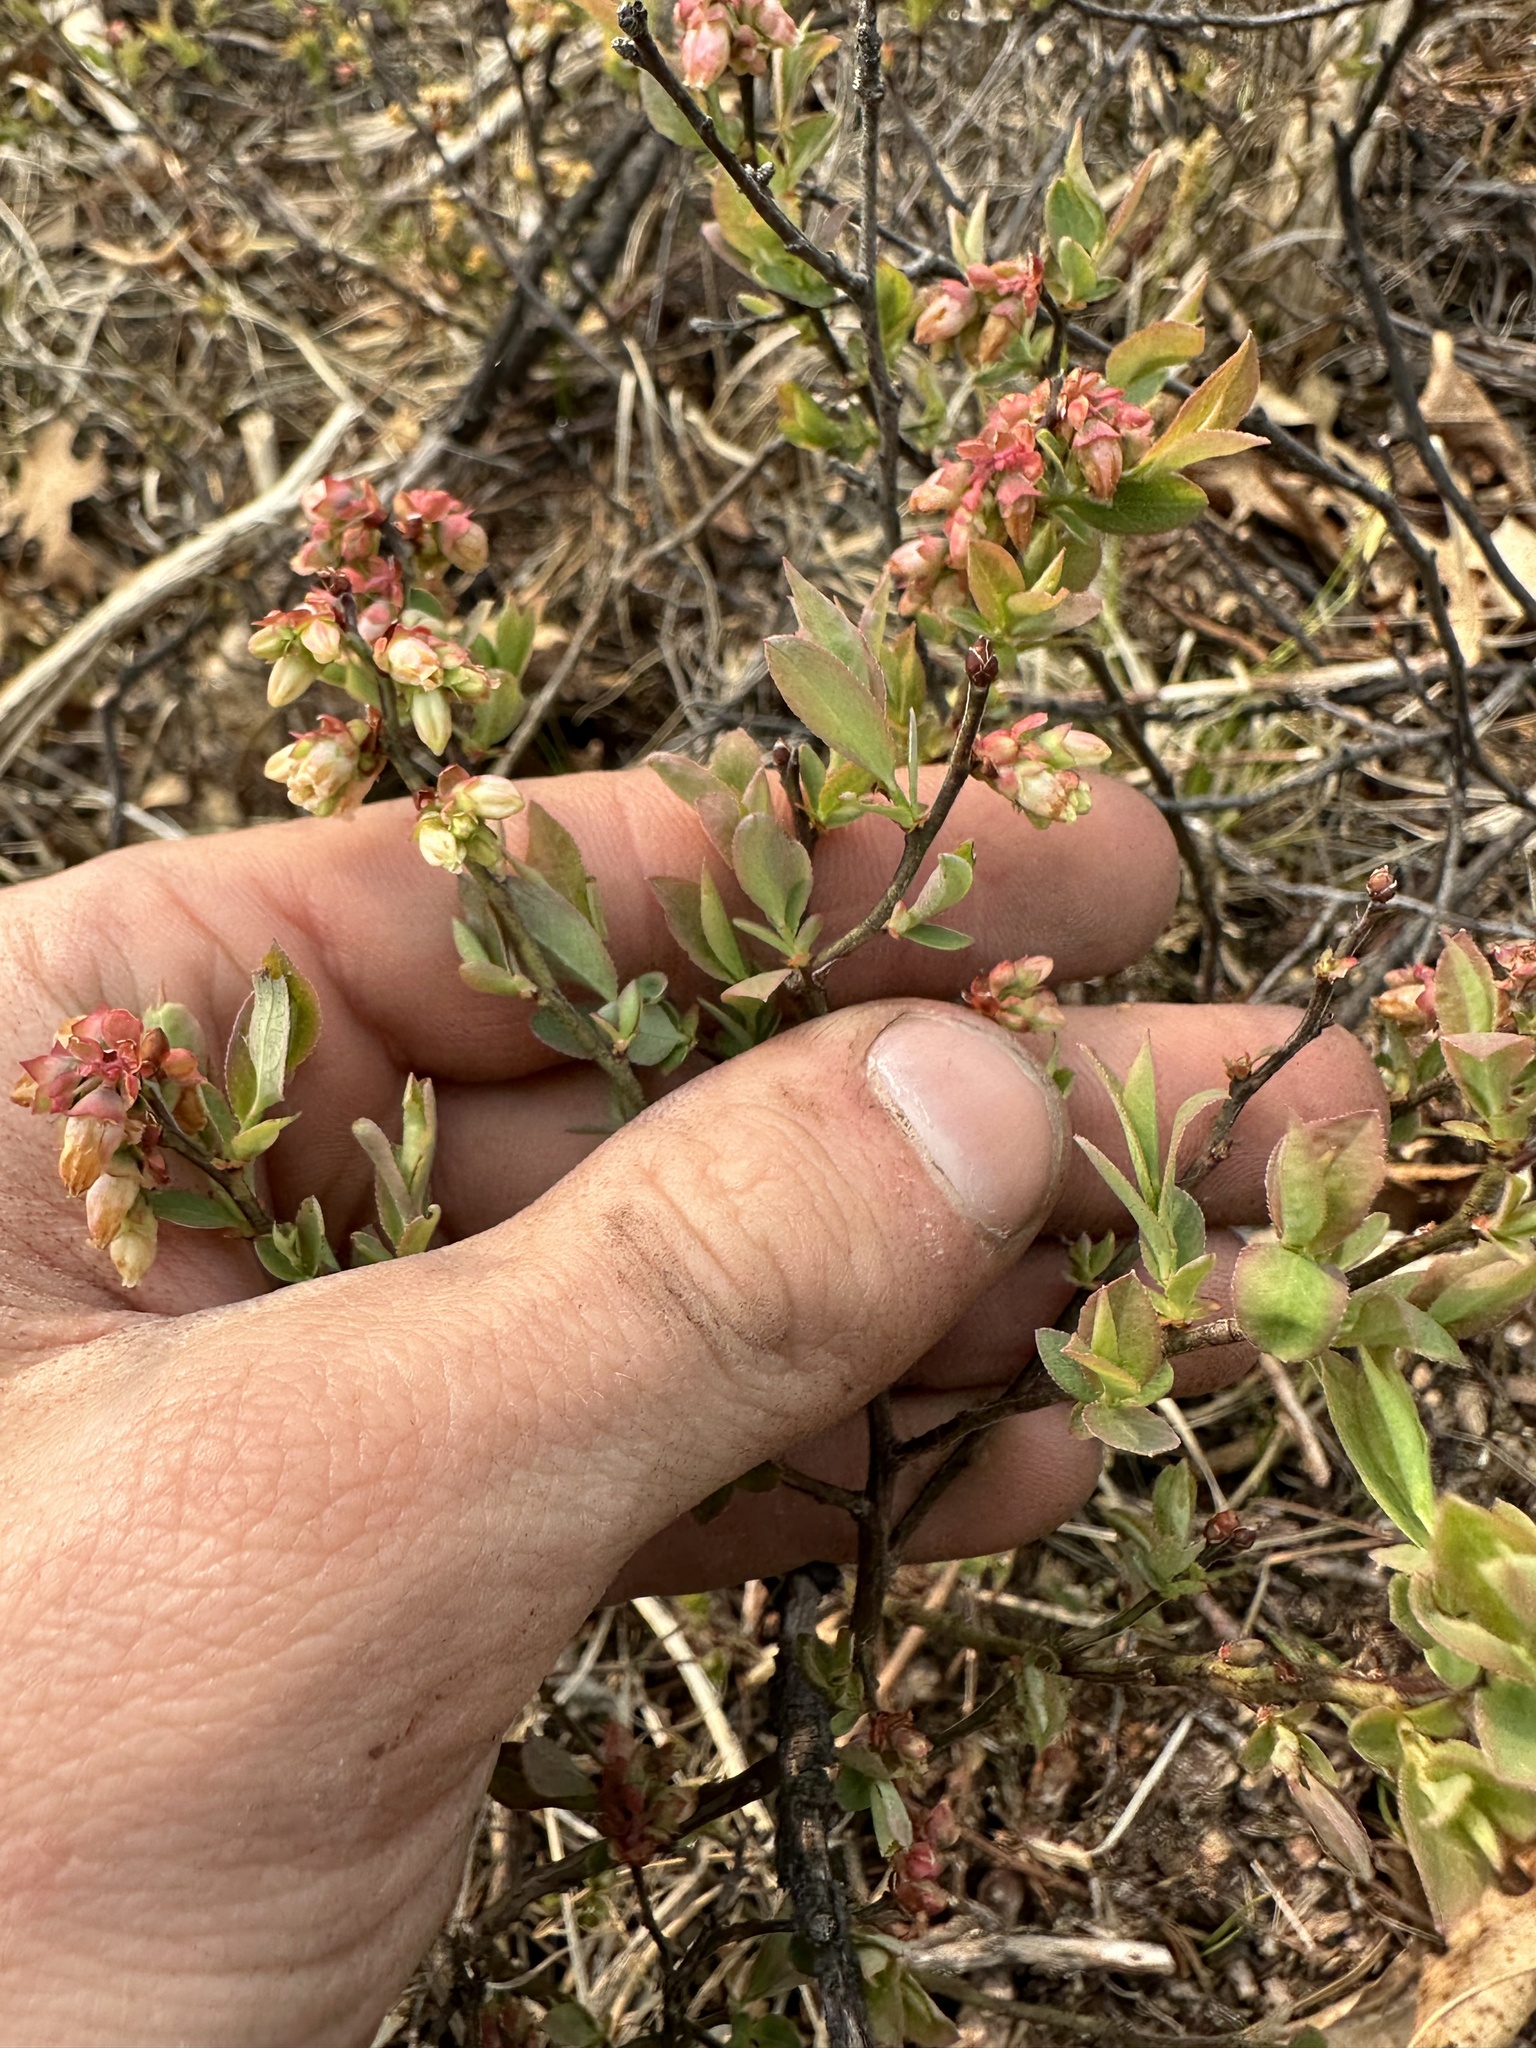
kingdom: Plantae
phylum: Tracheophyta
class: Magnoliopsida
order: Ericales
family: Ericaceae
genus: Vaccinium
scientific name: Vaccinium angustifolium
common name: Early lowbush blueberry
